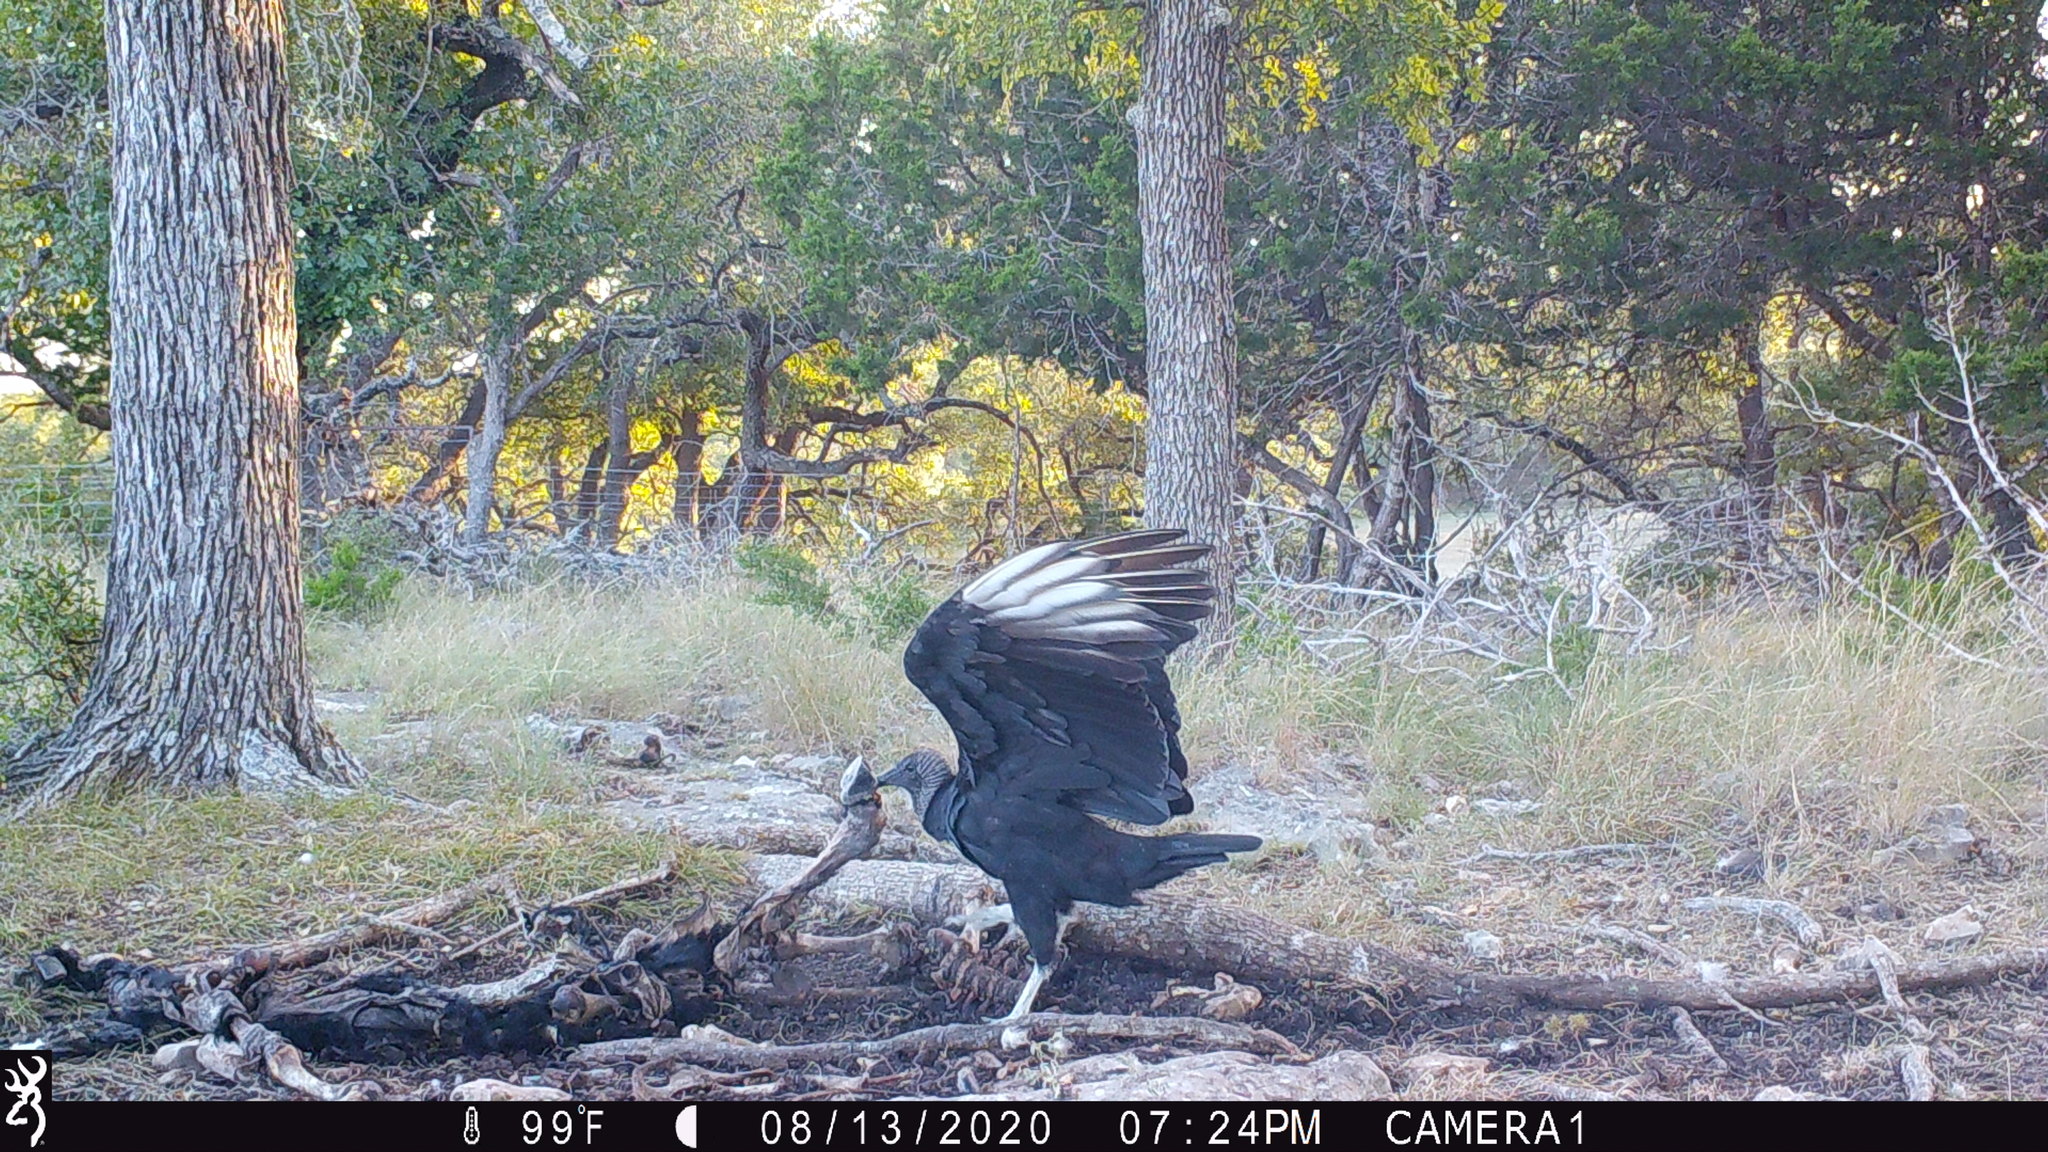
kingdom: Animalia
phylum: Chordata
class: Aves
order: Accipitriformes
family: Cathartidae
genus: Coragyps
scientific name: Coragyps atratus
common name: Black vulture
